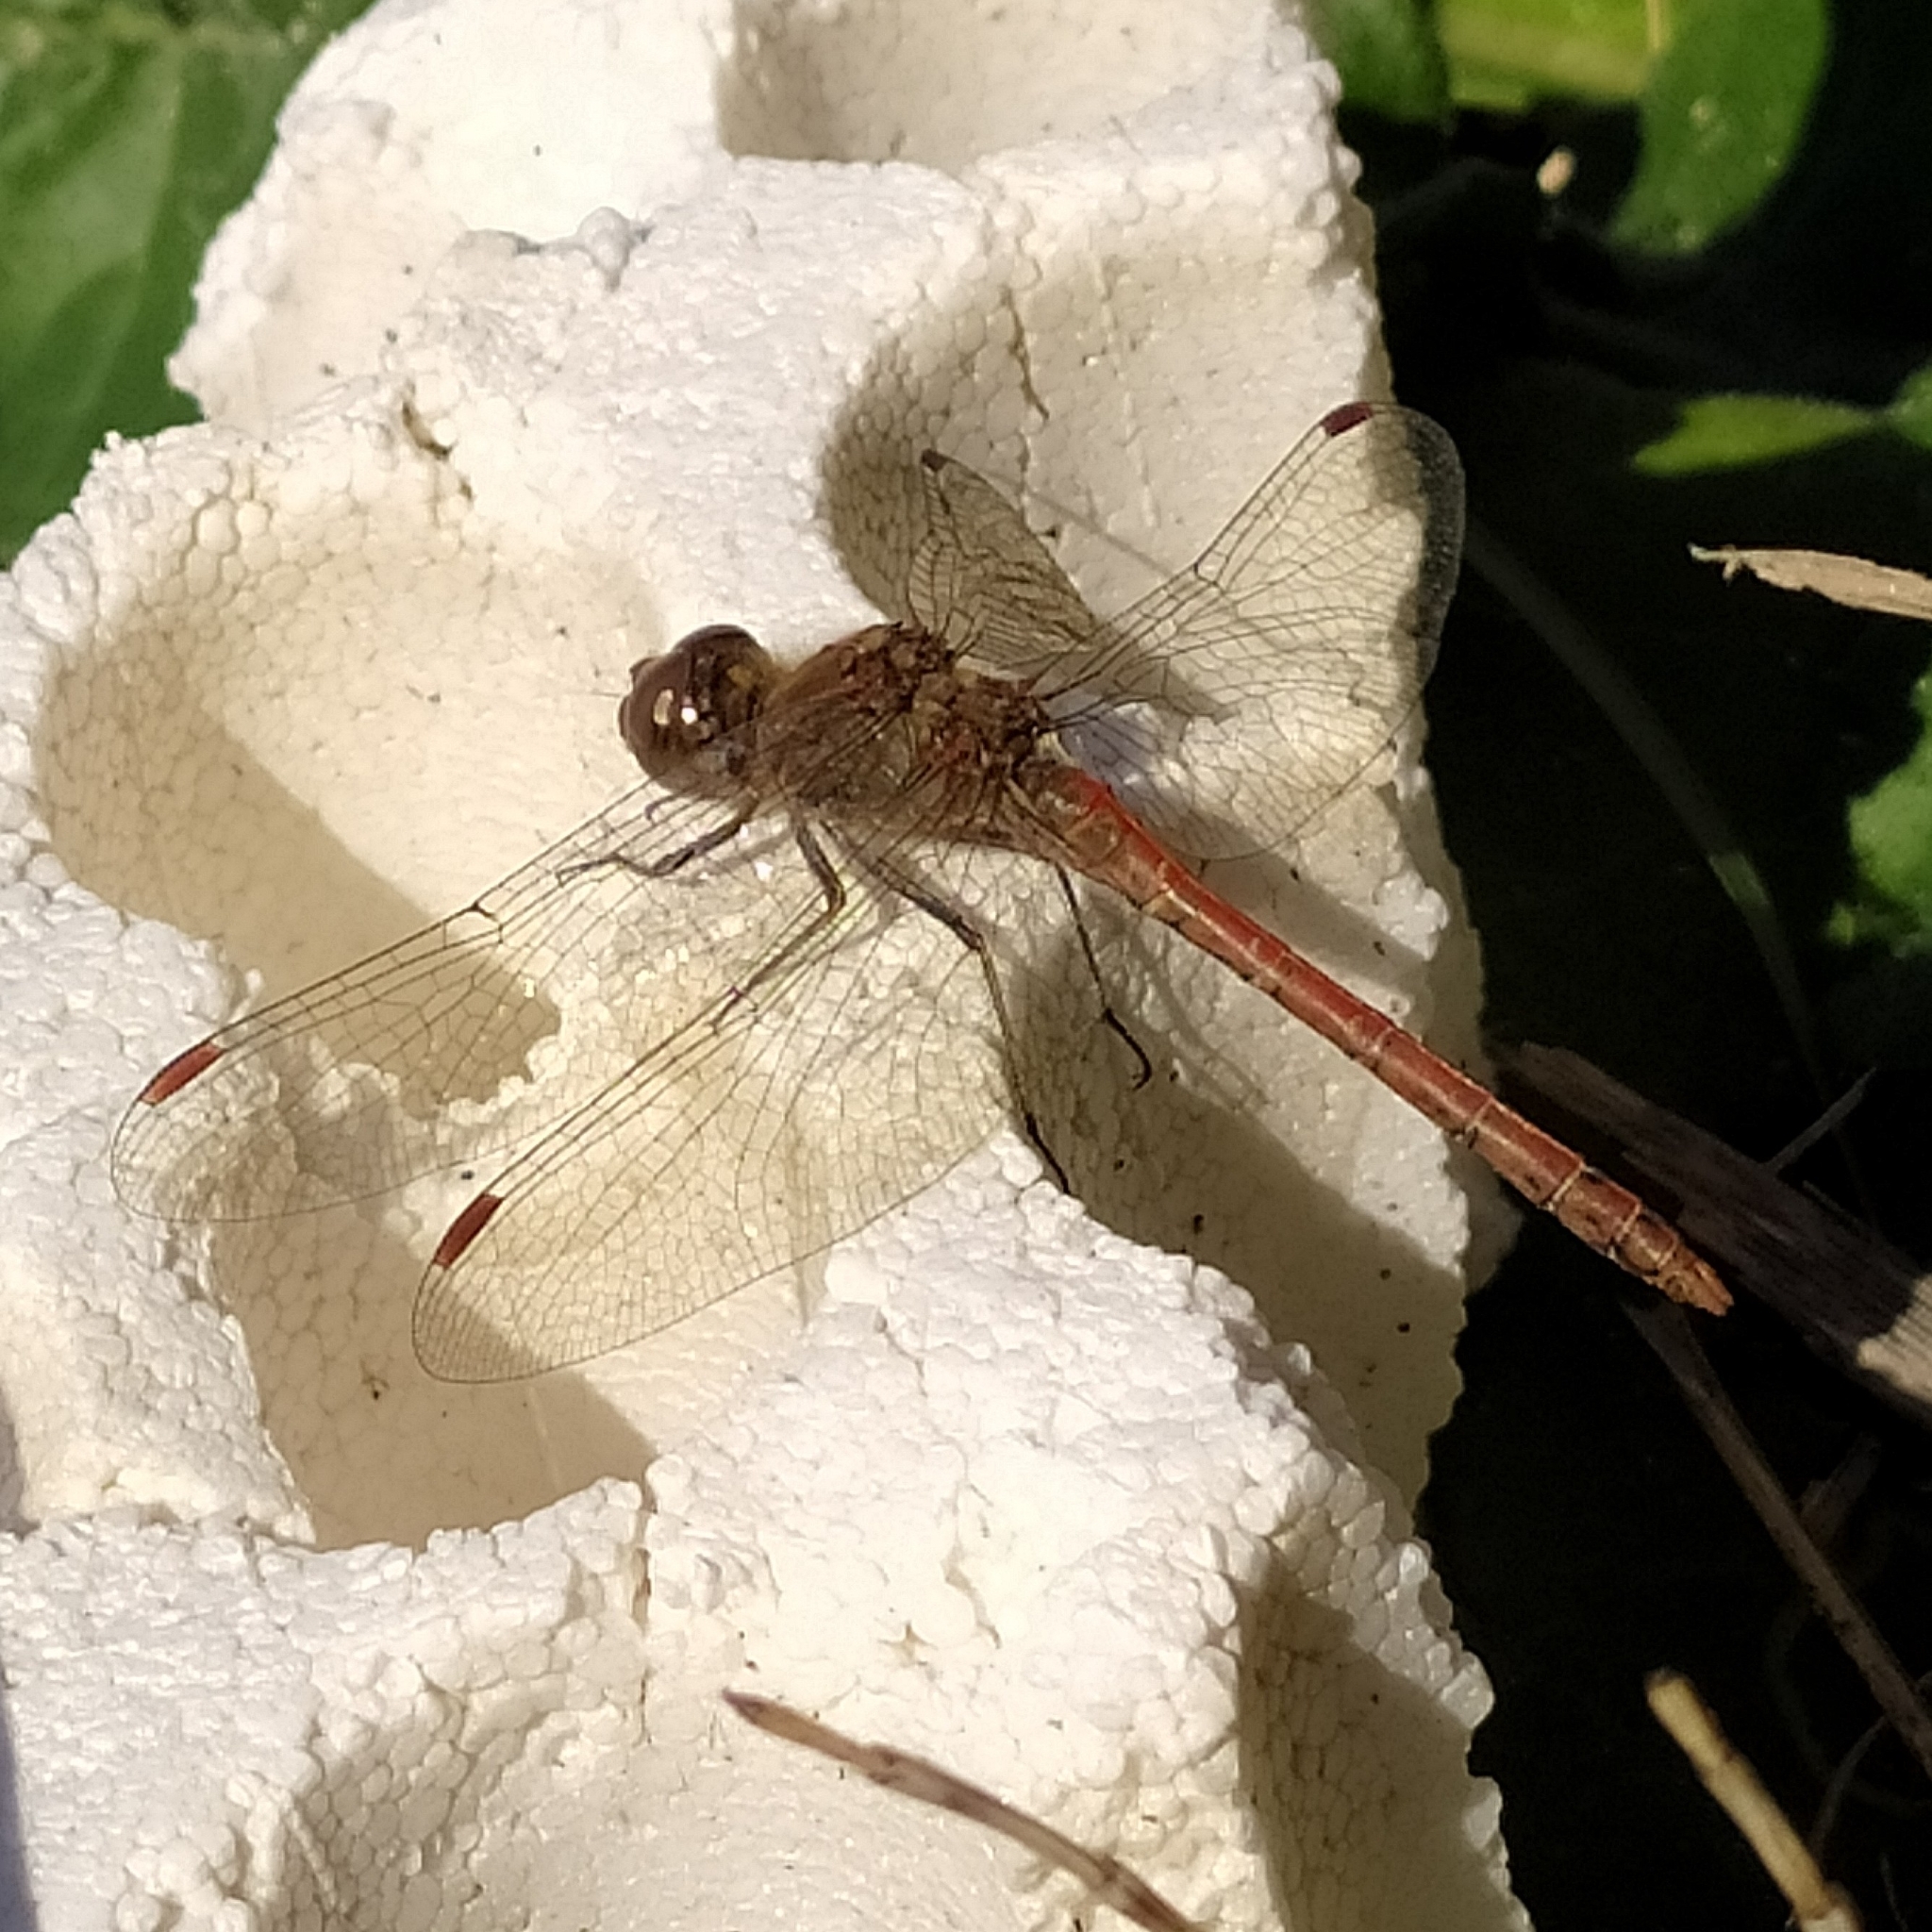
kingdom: Animalia
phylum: Arthropoda
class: Insecta
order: Odonata
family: Libellulidae
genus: Sympetrum
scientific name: Sympetrum striolatum
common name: Common darter
